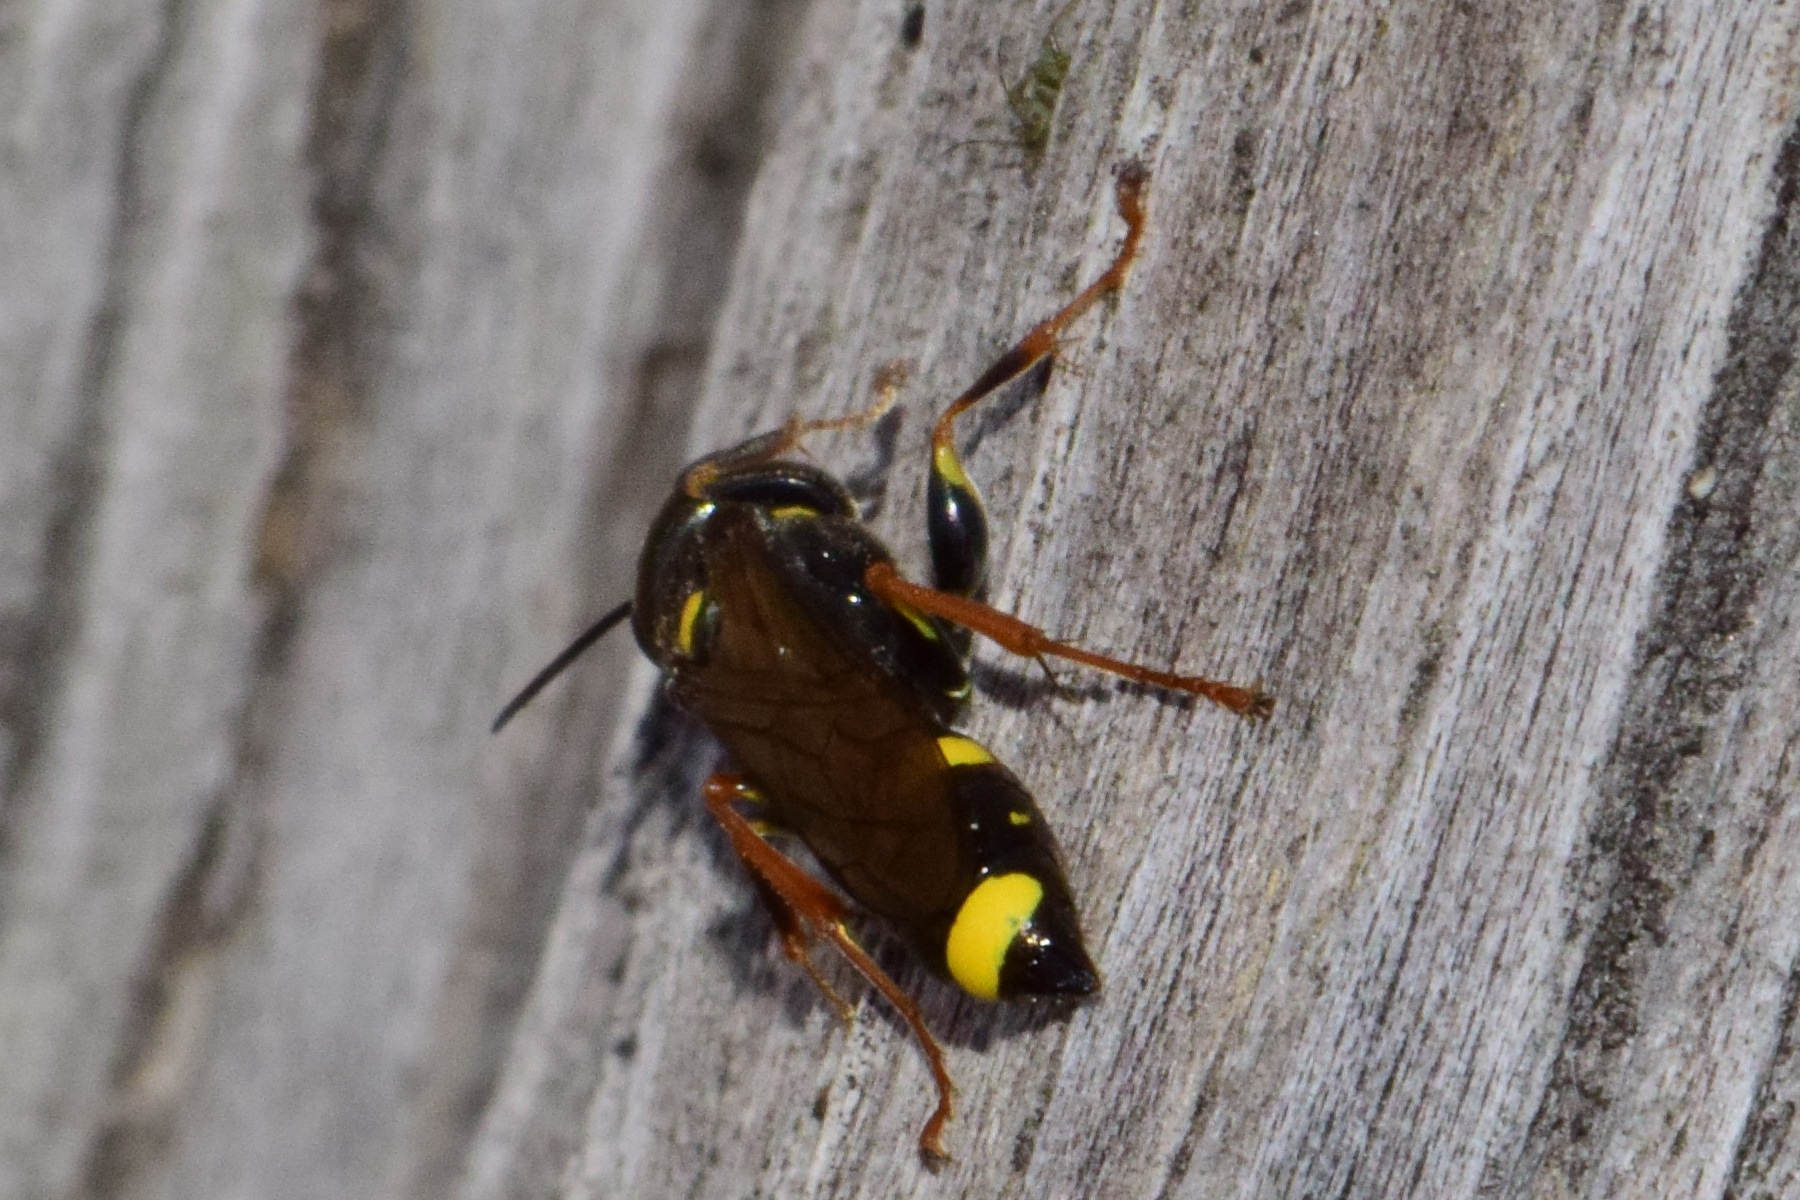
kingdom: Animalia
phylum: Arthropoda
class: Insecta
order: Hymenoptera
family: Crabronidae
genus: Mellinus
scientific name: Mellinus arvensis
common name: Field digger wasp
